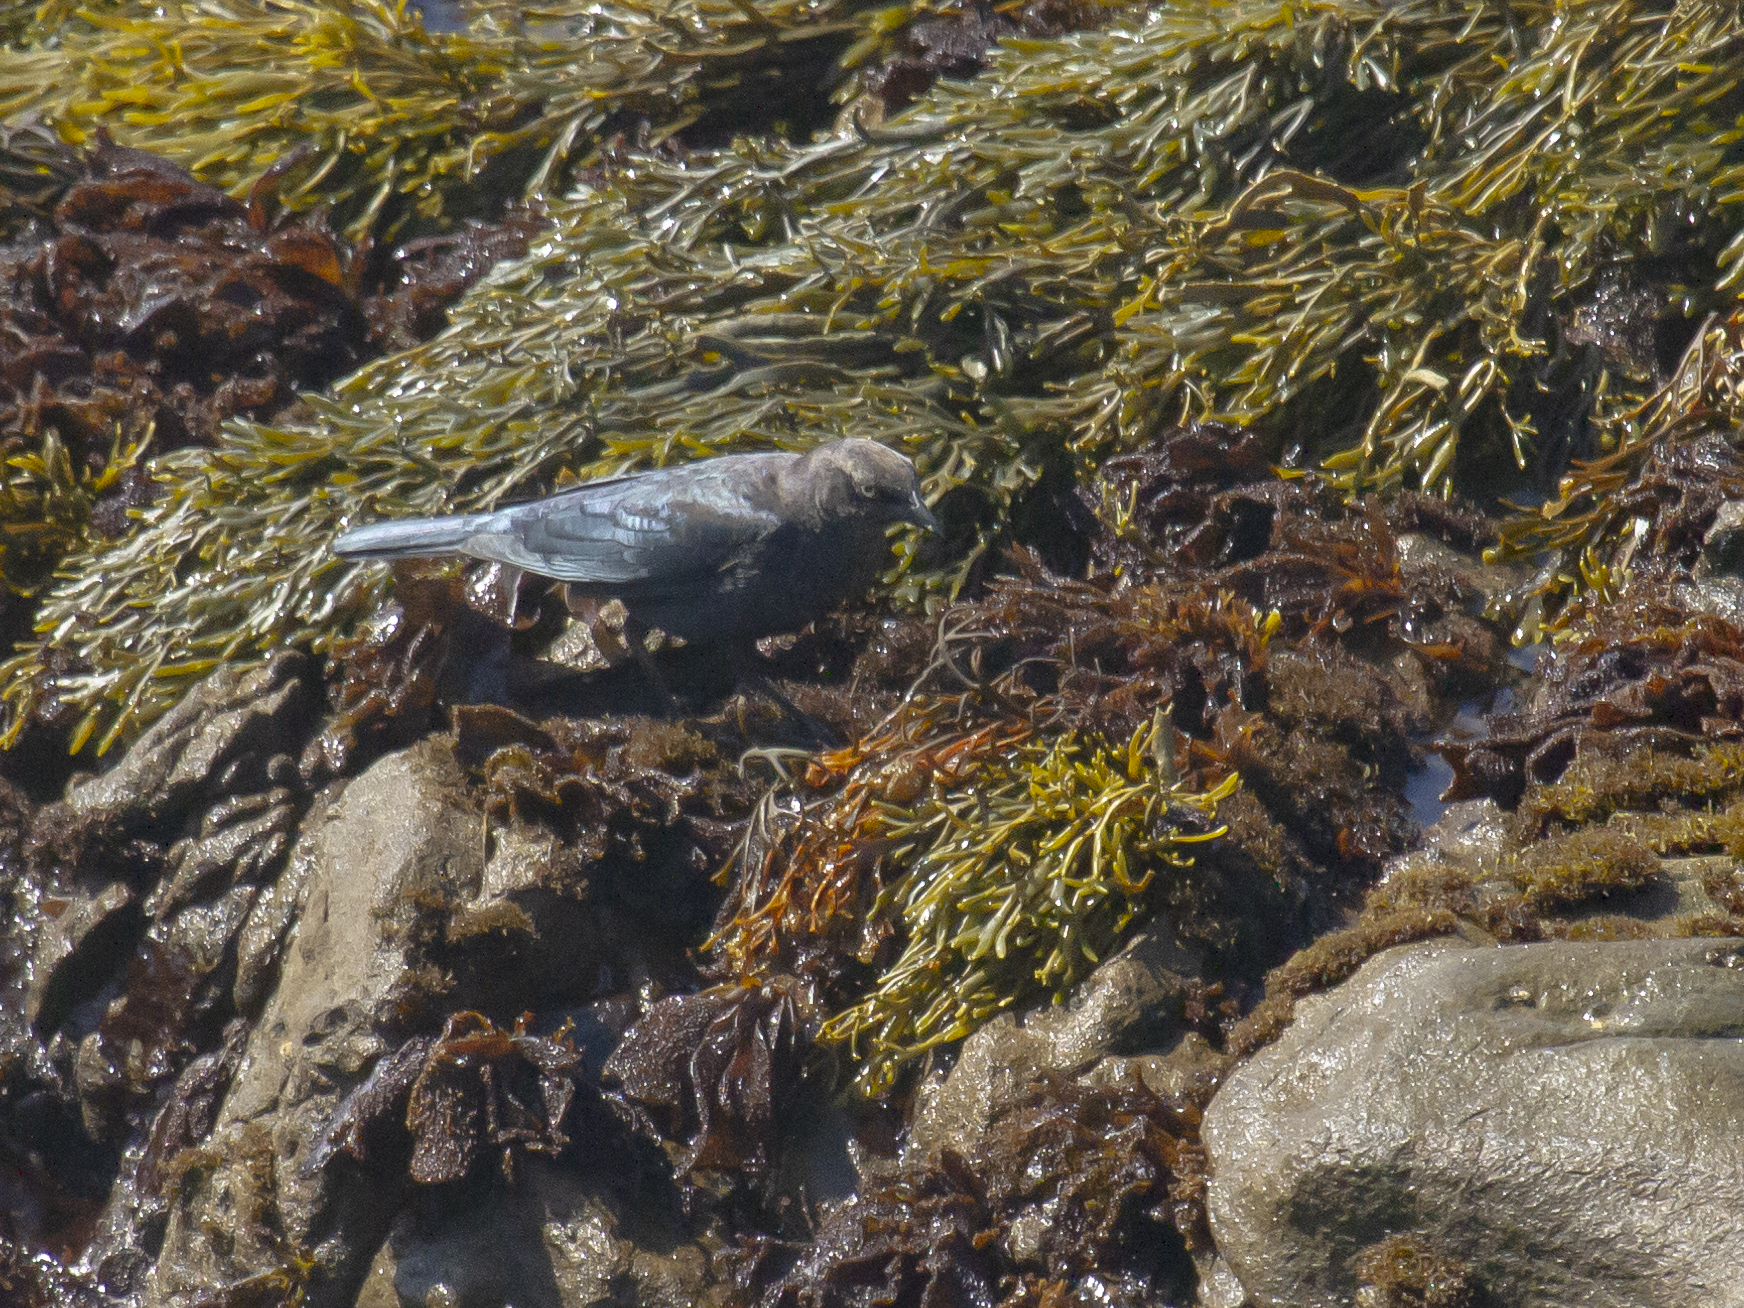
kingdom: Animalia
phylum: Chordata
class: Aves
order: Passeriformes
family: Icteridae
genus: Euphagus
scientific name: Euphagus cyanocephalus
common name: Brewer's blackbird
